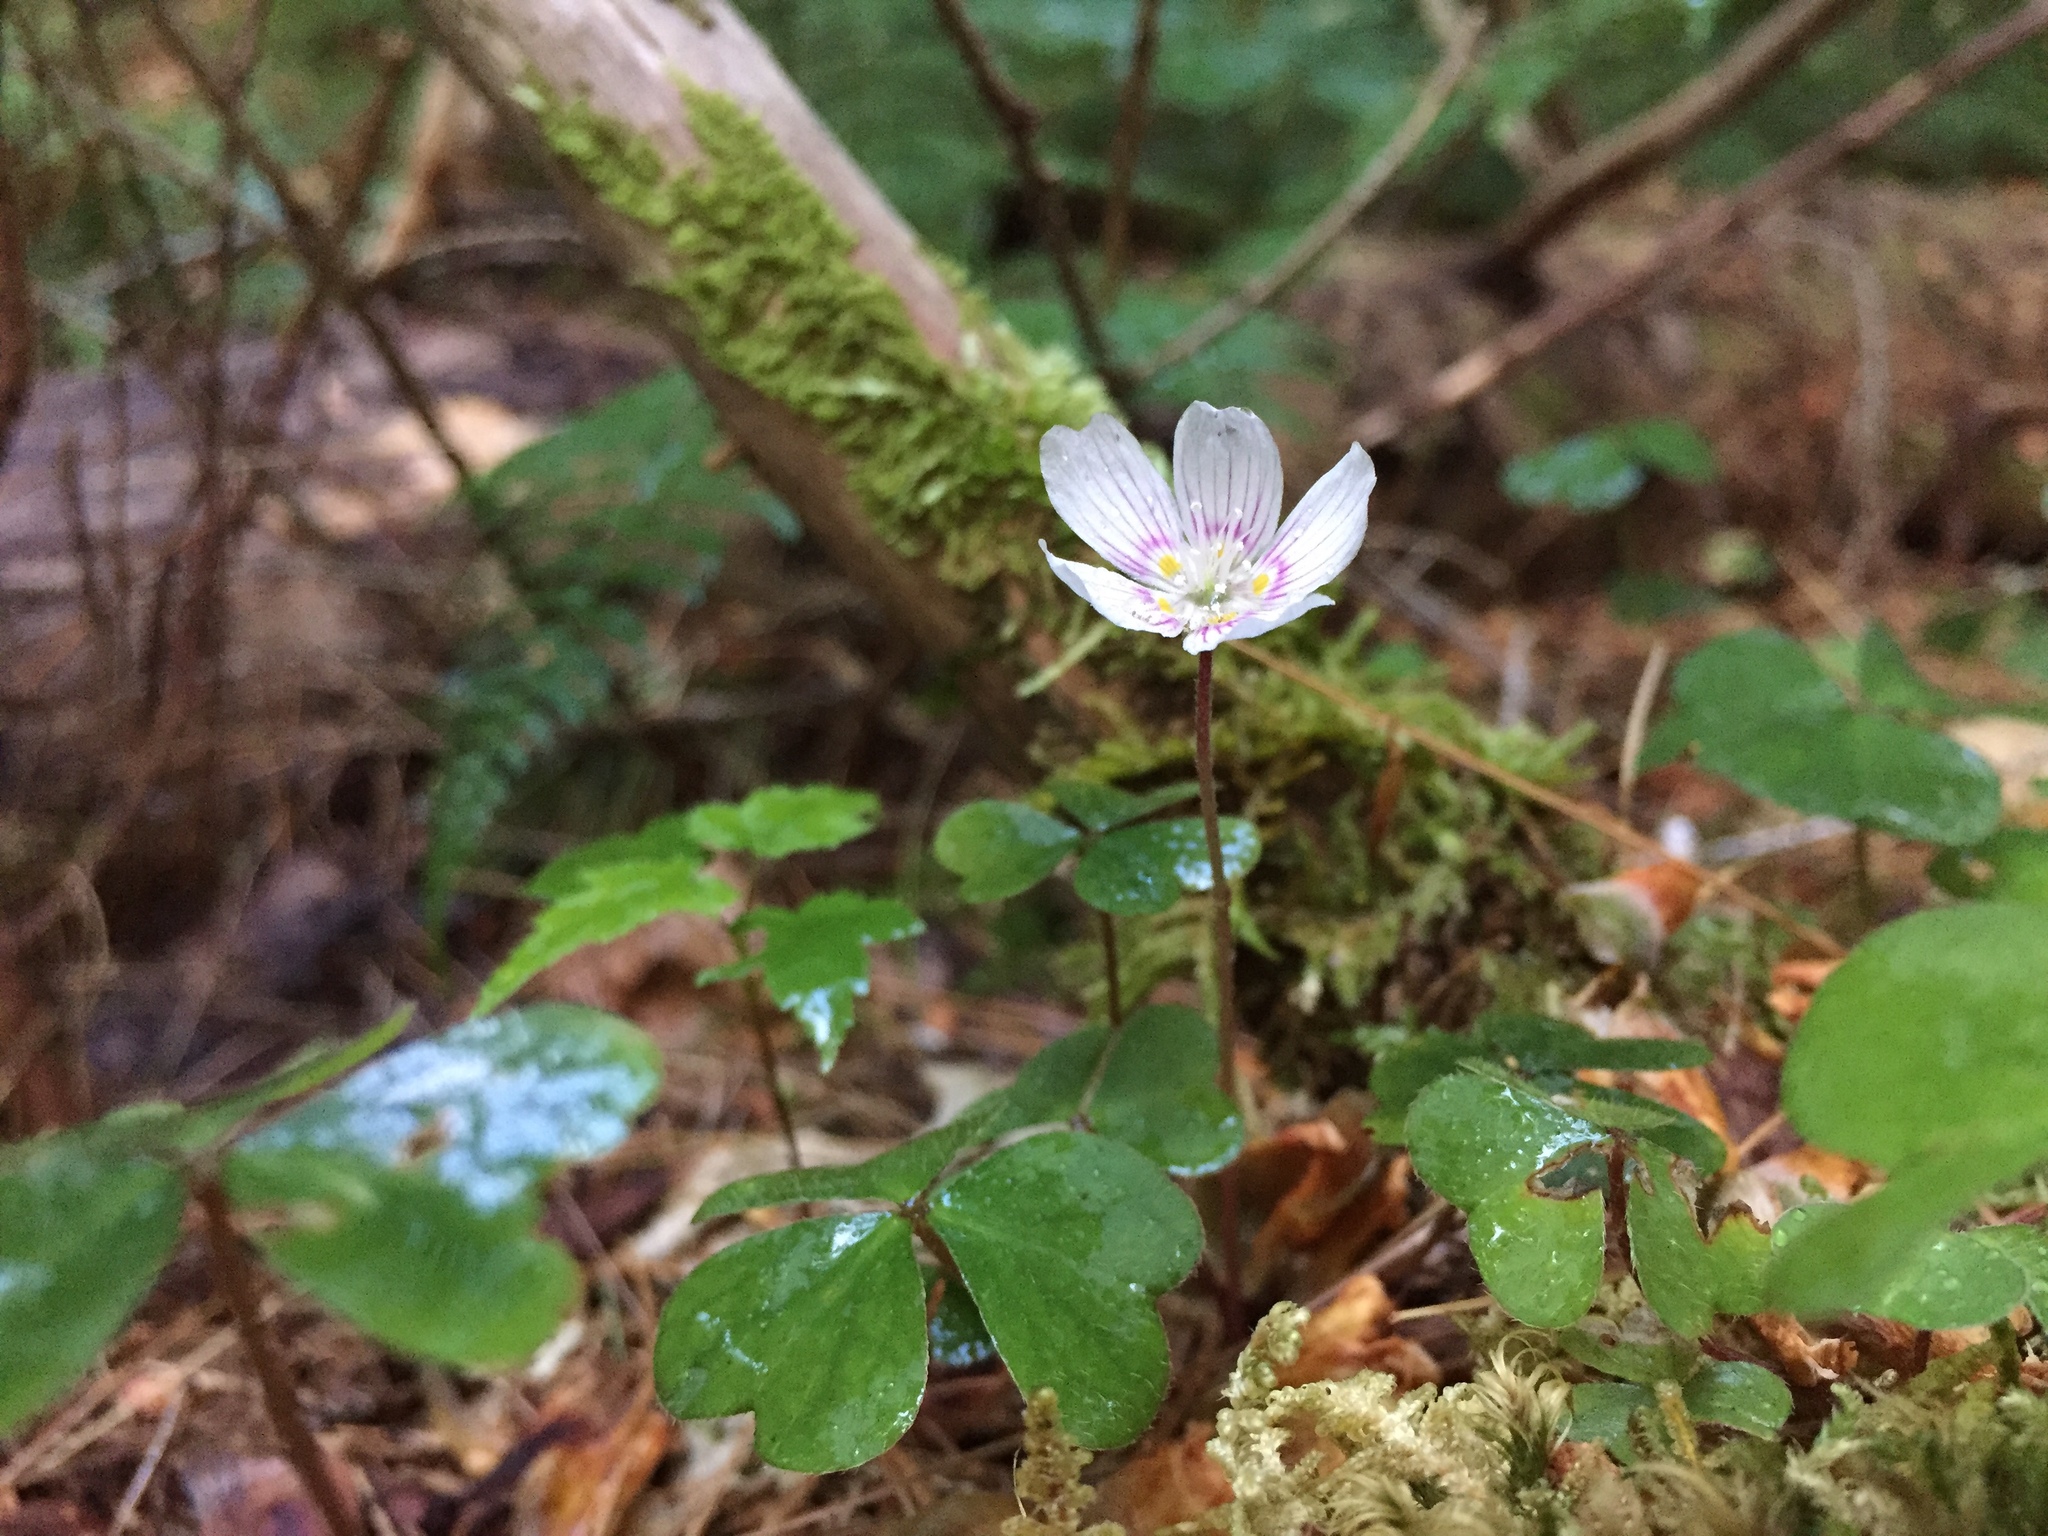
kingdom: Plantae
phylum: Tracheophyta
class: Magnoliopsida
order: Oxalidales
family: Oxalidaceae
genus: Oxalis
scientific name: Oxalis montana
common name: American wood-sorrel
